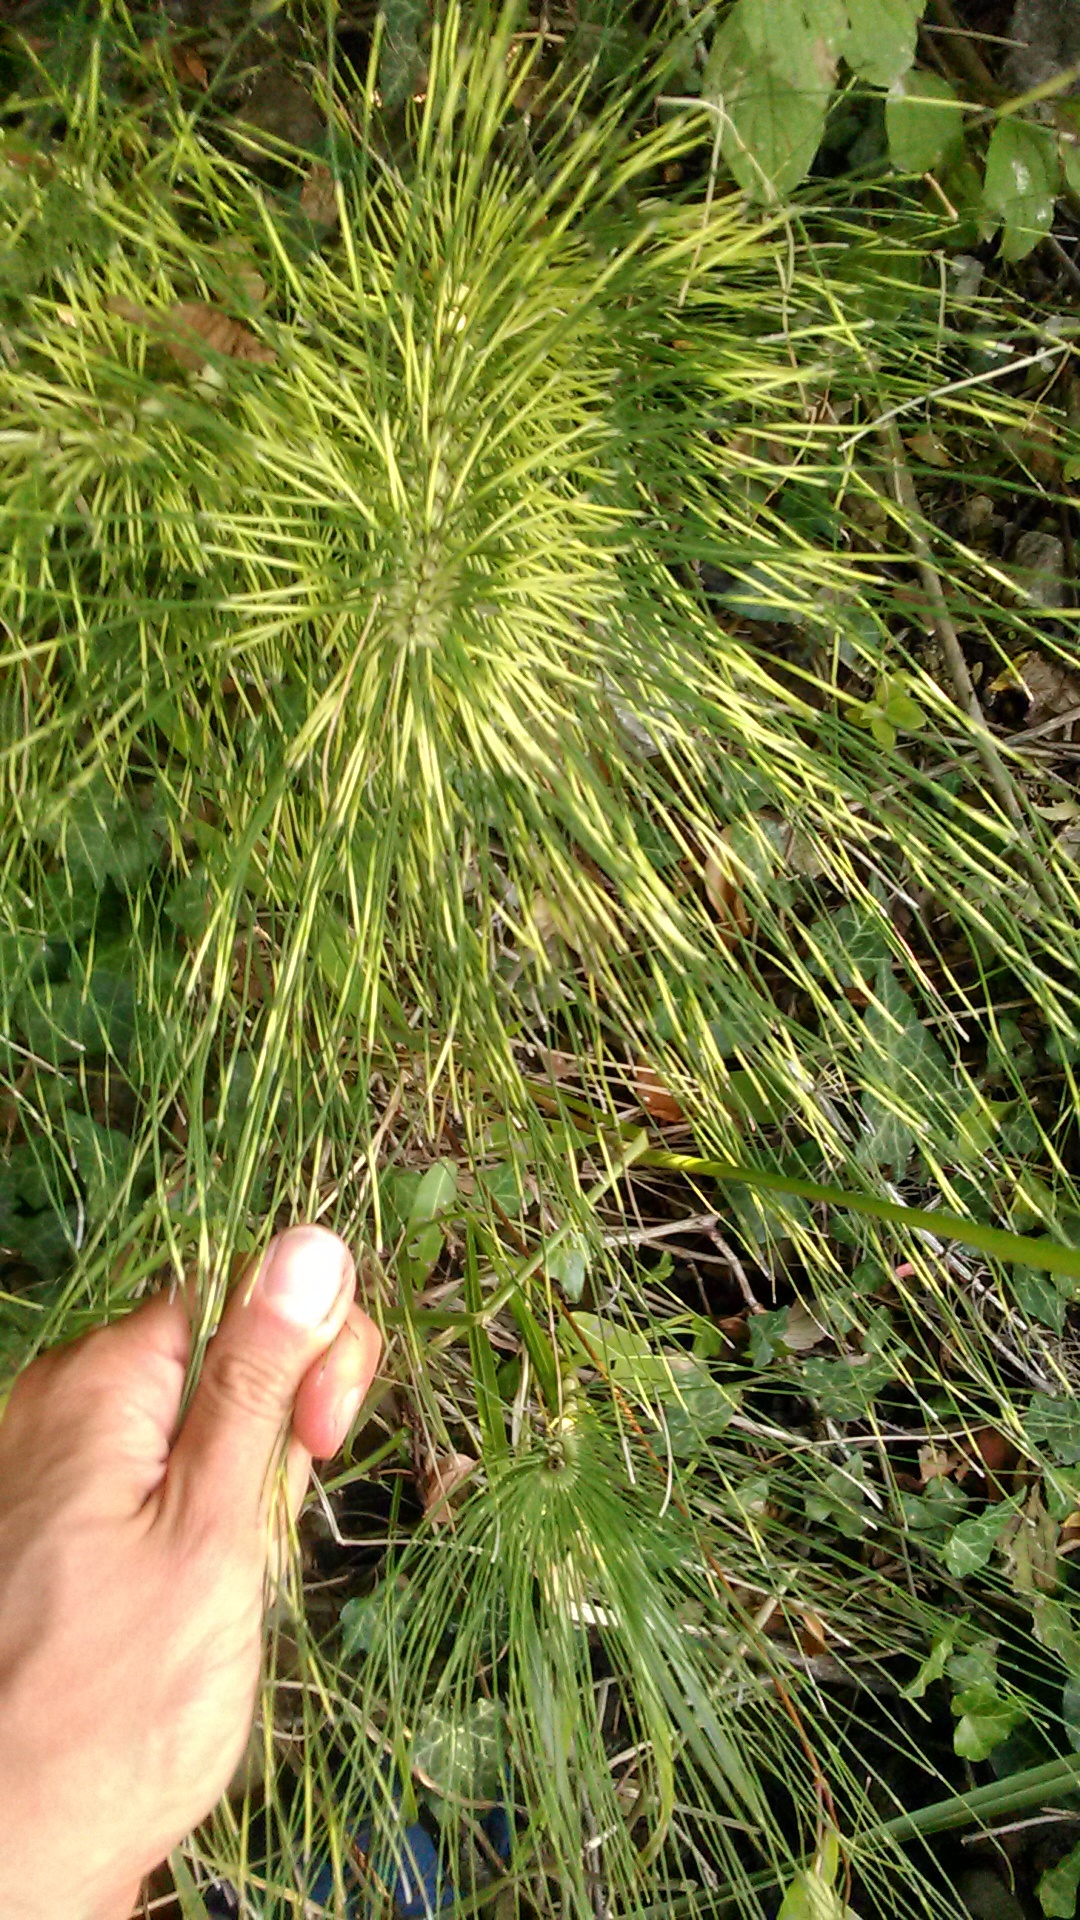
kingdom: Plantae
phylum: Tracheophyta
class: Polypodiopsida
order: Equisetales
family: Equisetaceae
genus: Equisetum
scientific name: Equisetum telmateia
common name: Great horsetail
